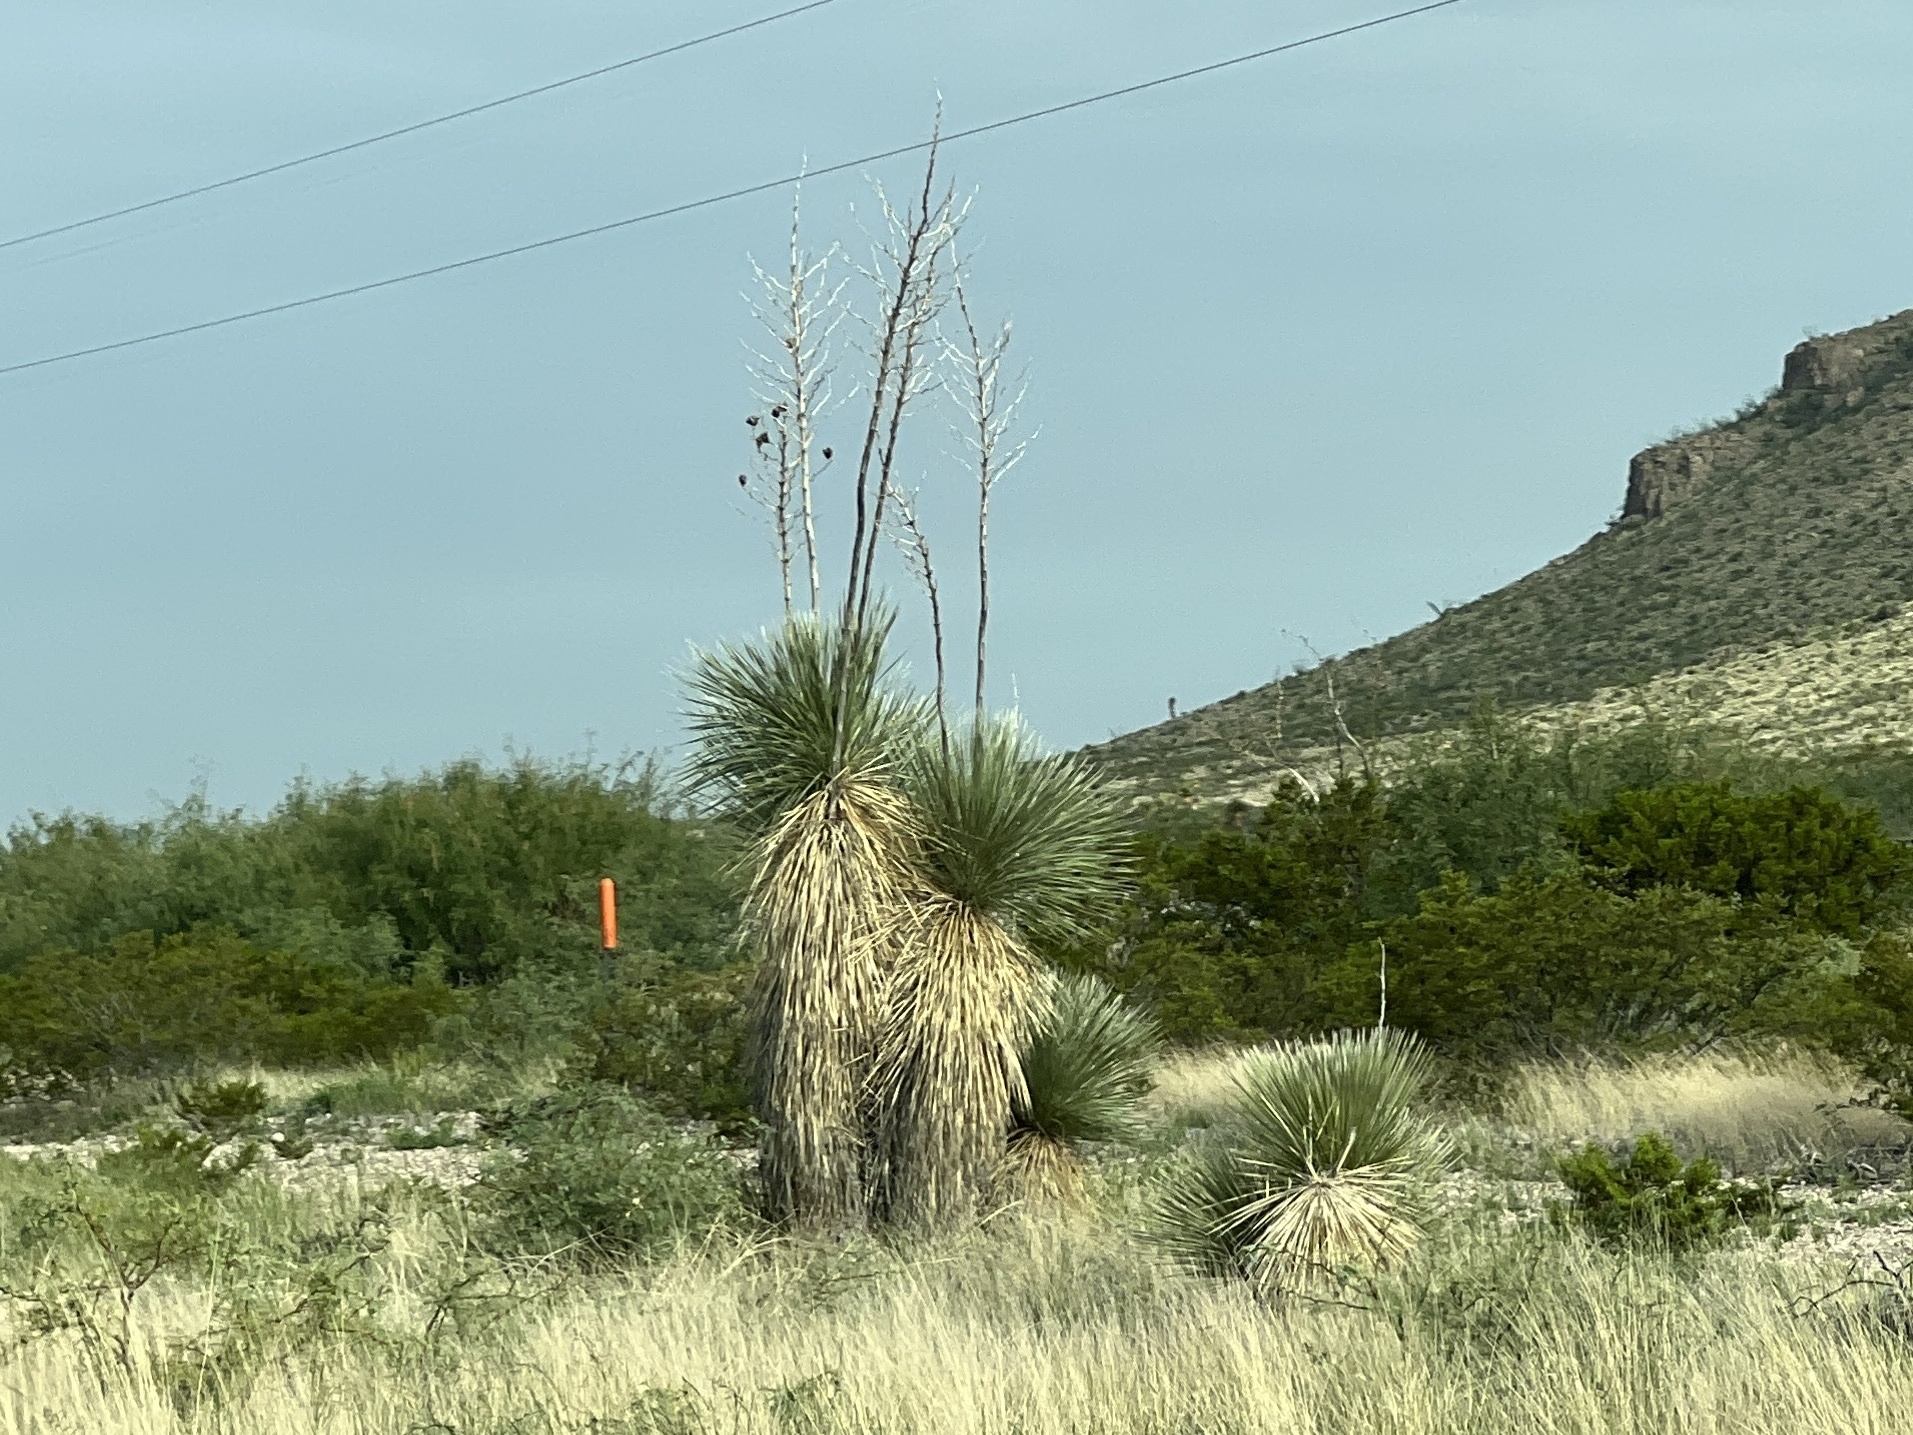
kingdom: Plantae
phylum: Tracheophyta
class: Liliopsida
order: Asparagales
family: Asparagaceae
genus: Yucca
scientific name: Yucca elata
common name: Palmella
